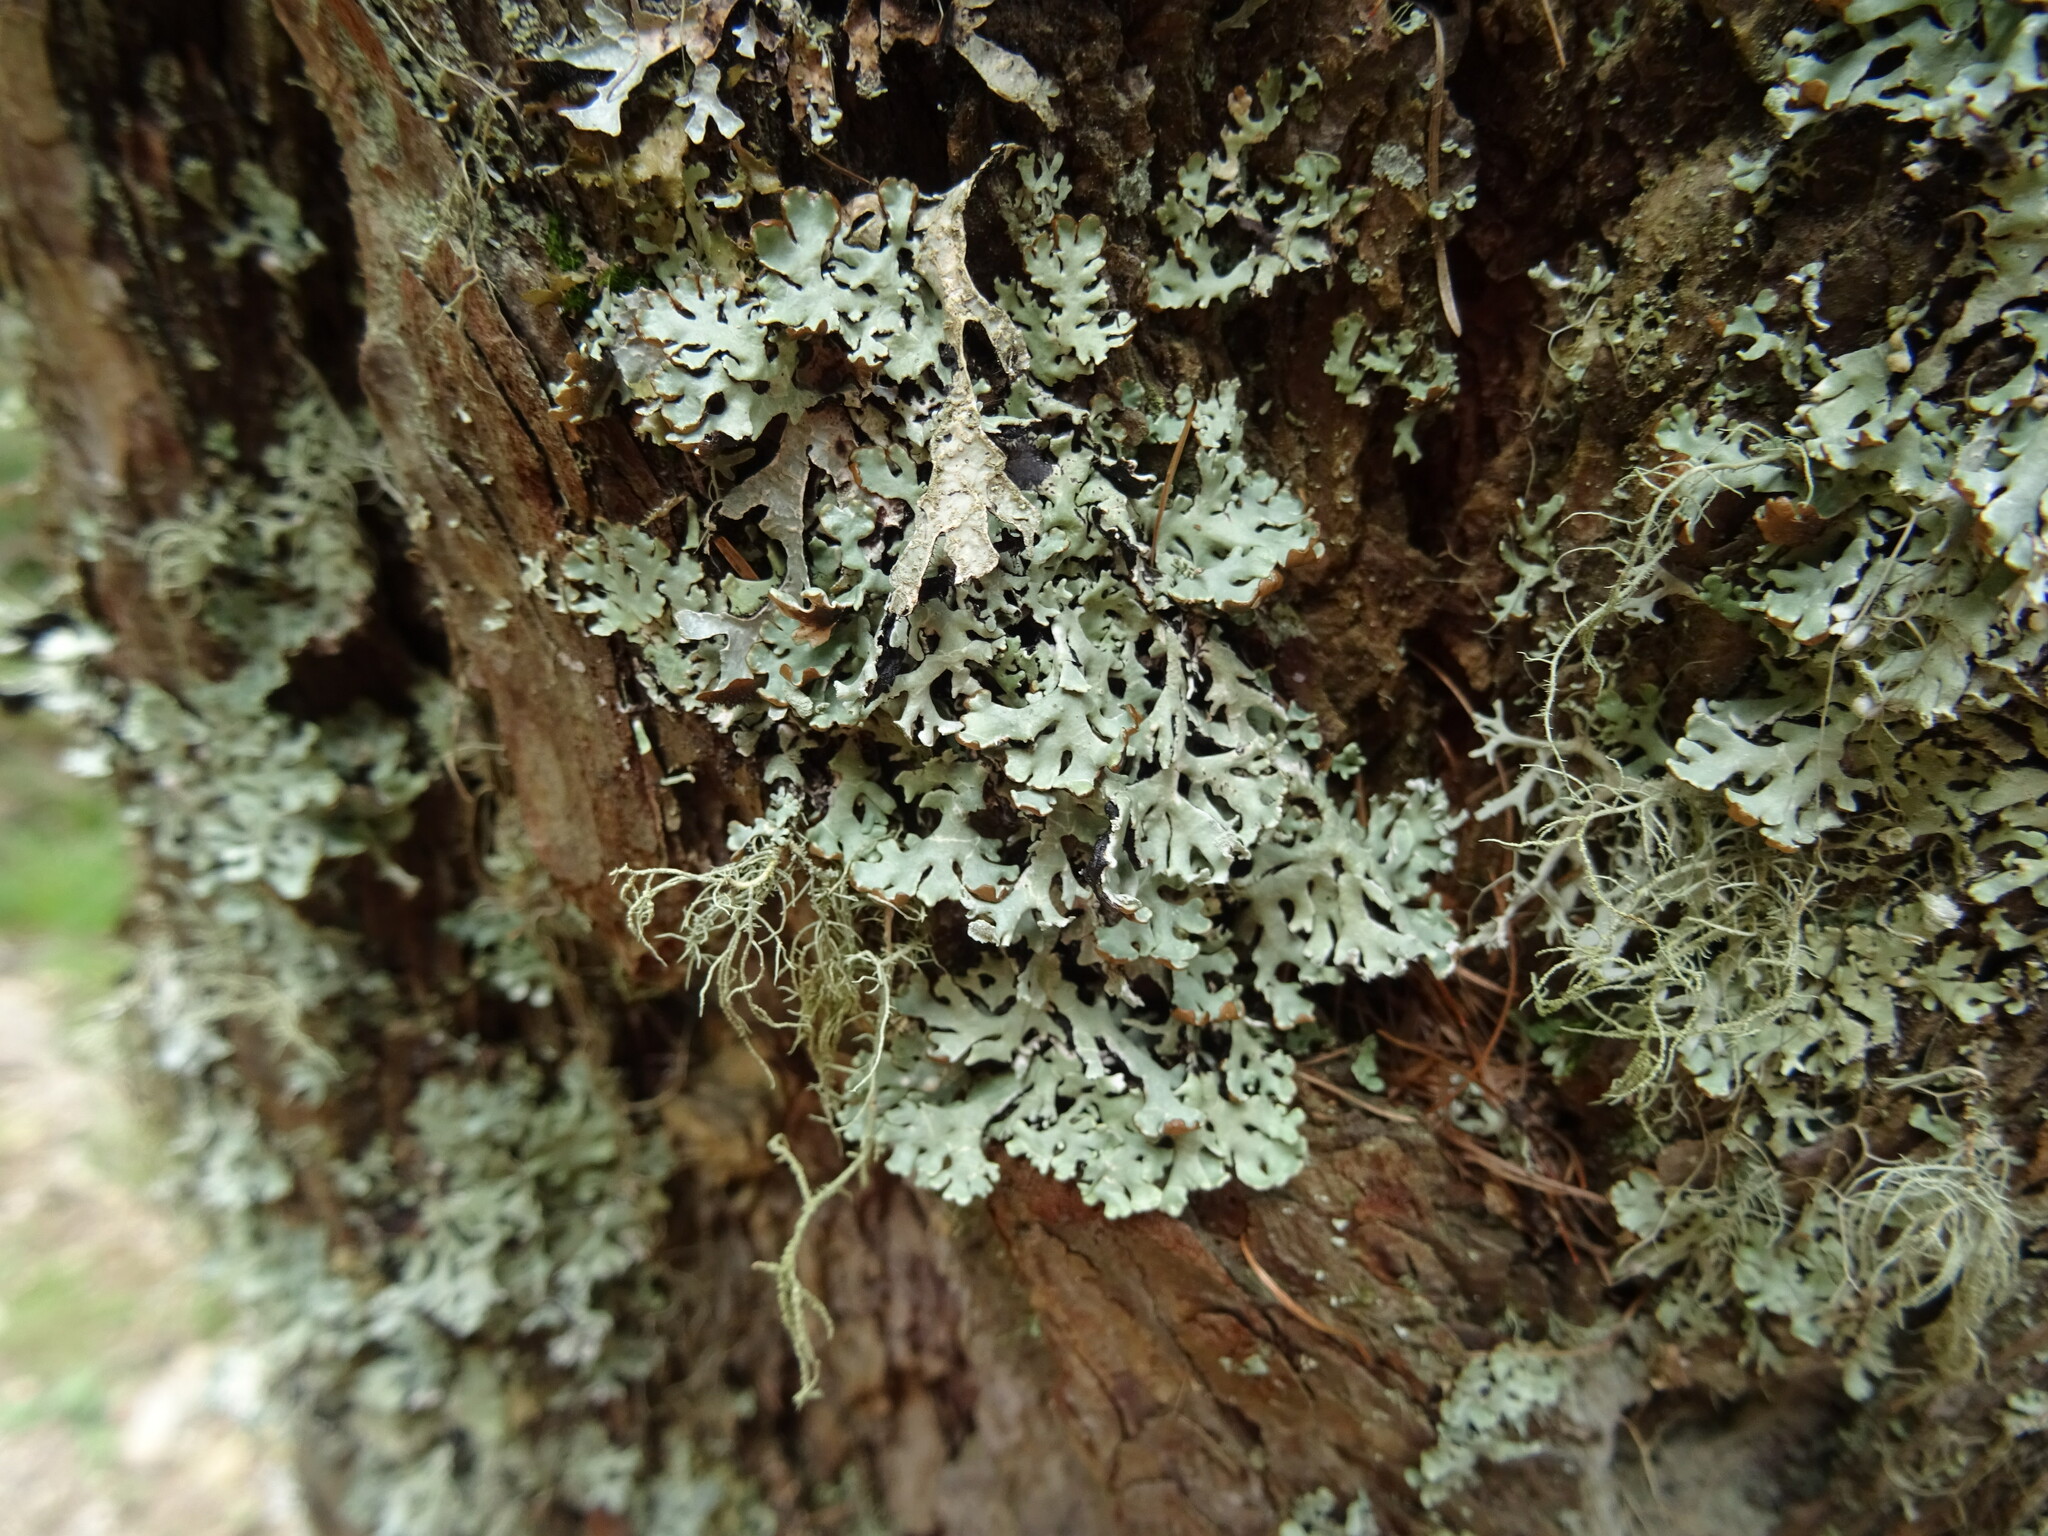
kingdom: Fungi
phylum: Ascomycota
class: Lecanoromycetes
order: Lecanorales
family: Parmeliaceae
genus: Hypogymnia
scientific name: Hypogymnia physodes
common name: Dark crottle
